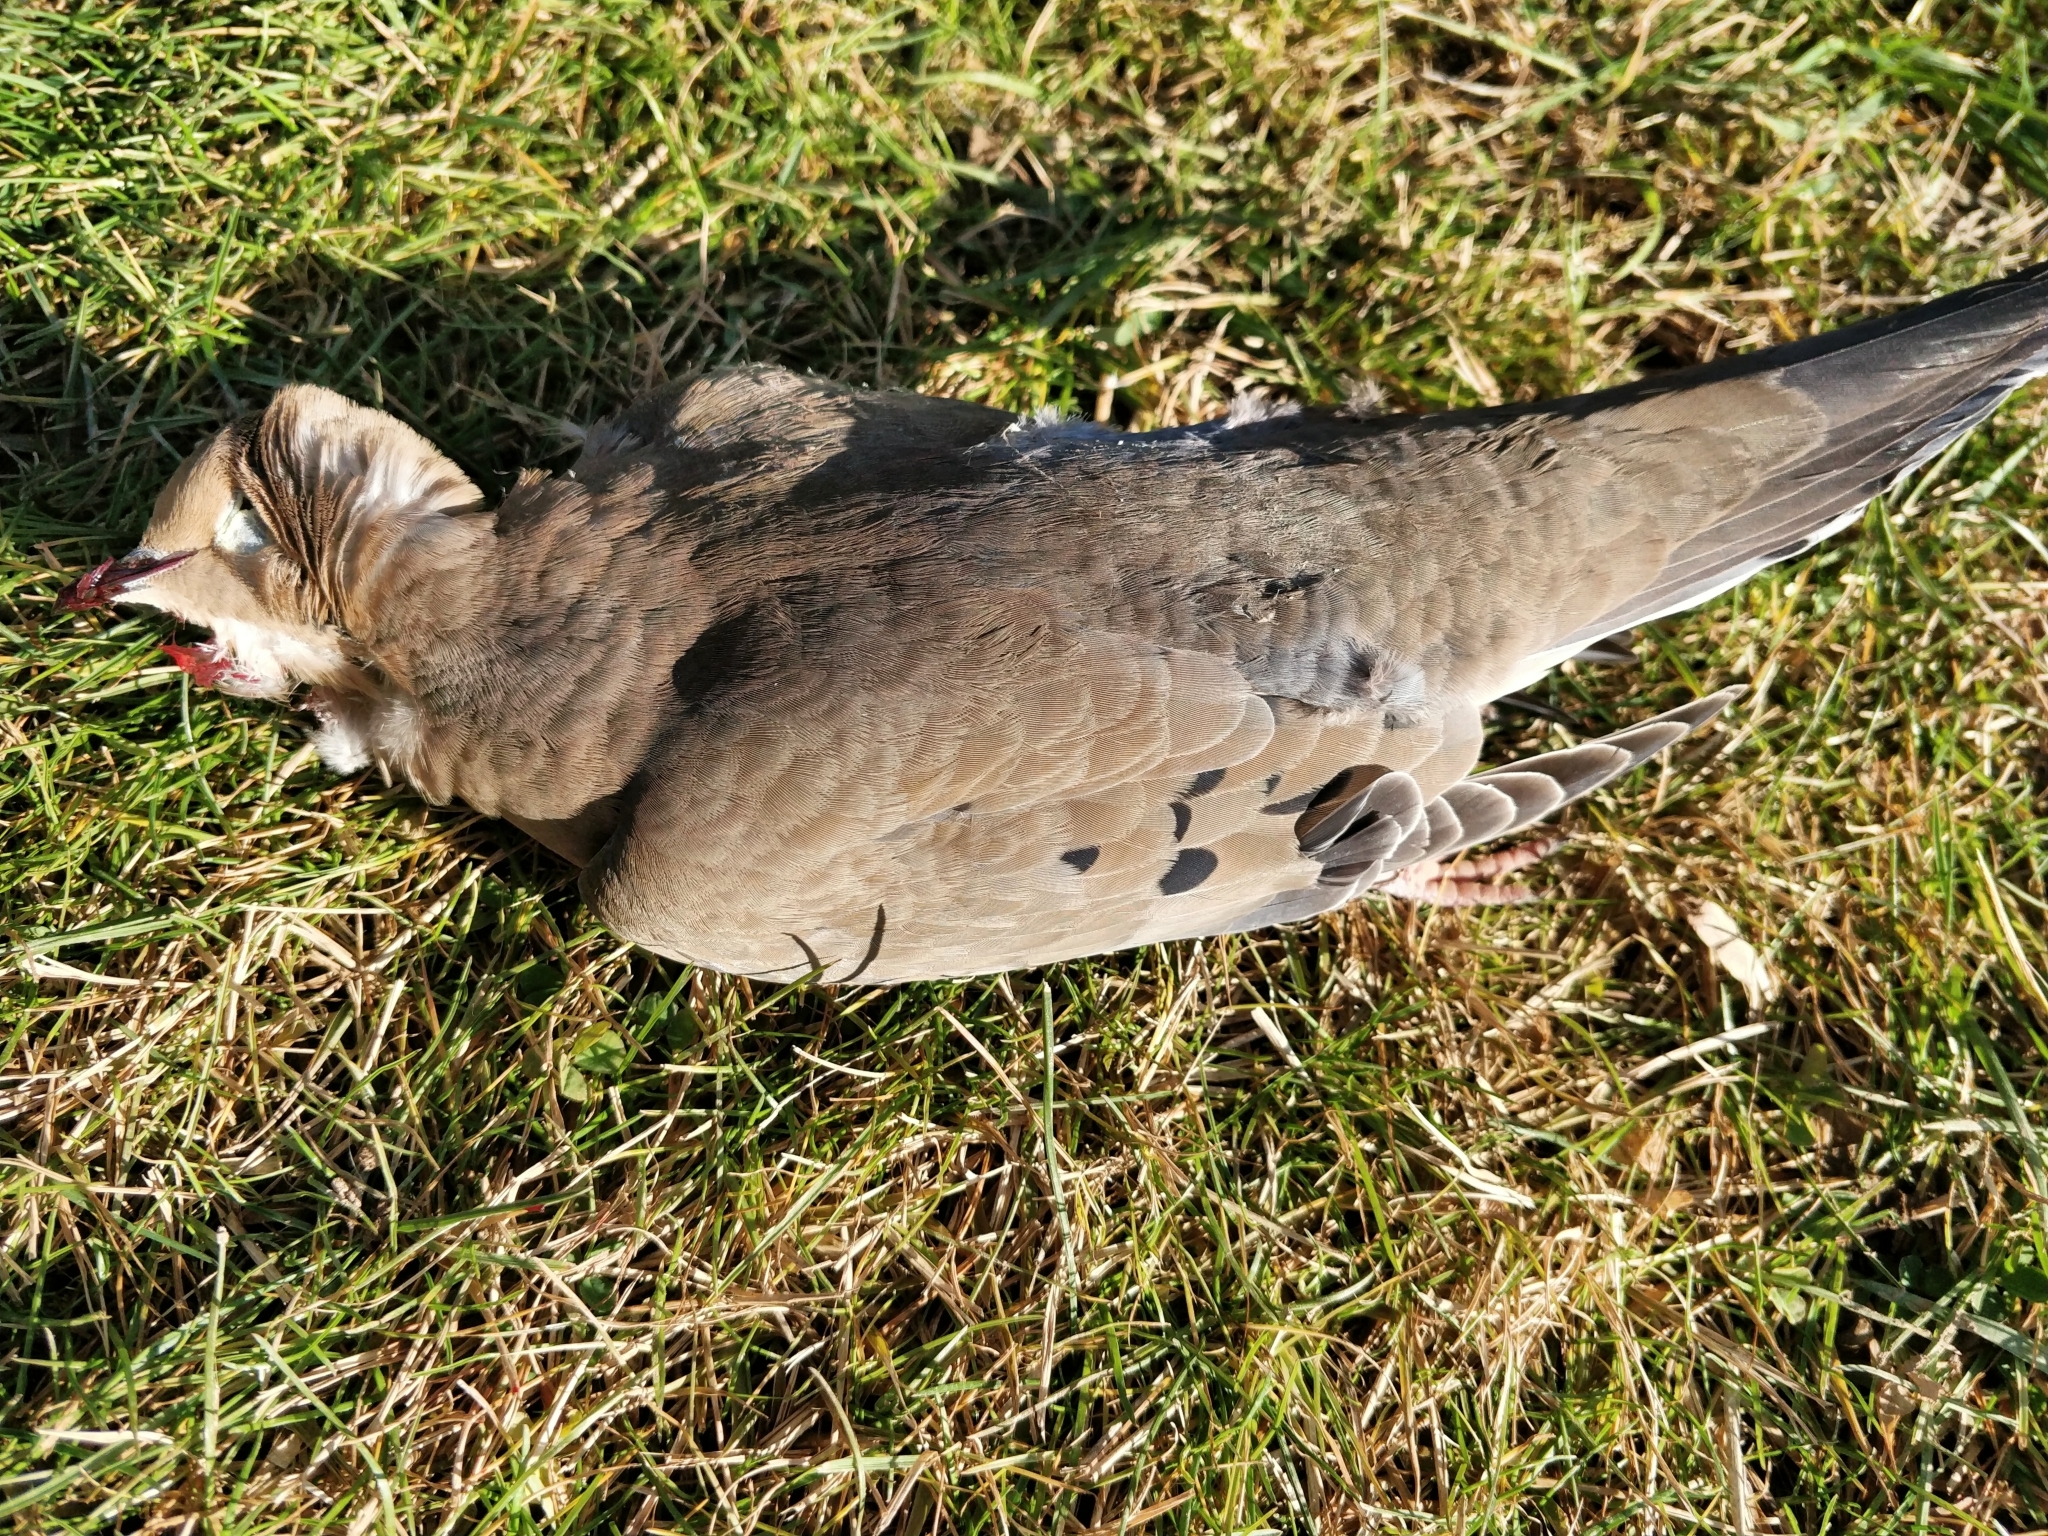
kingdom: Animalia
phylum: Chordata
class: Aves
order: Columbiformes
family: Columbidae
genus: Zenaida
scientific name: Zenaida macroura
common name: Mourning dove
